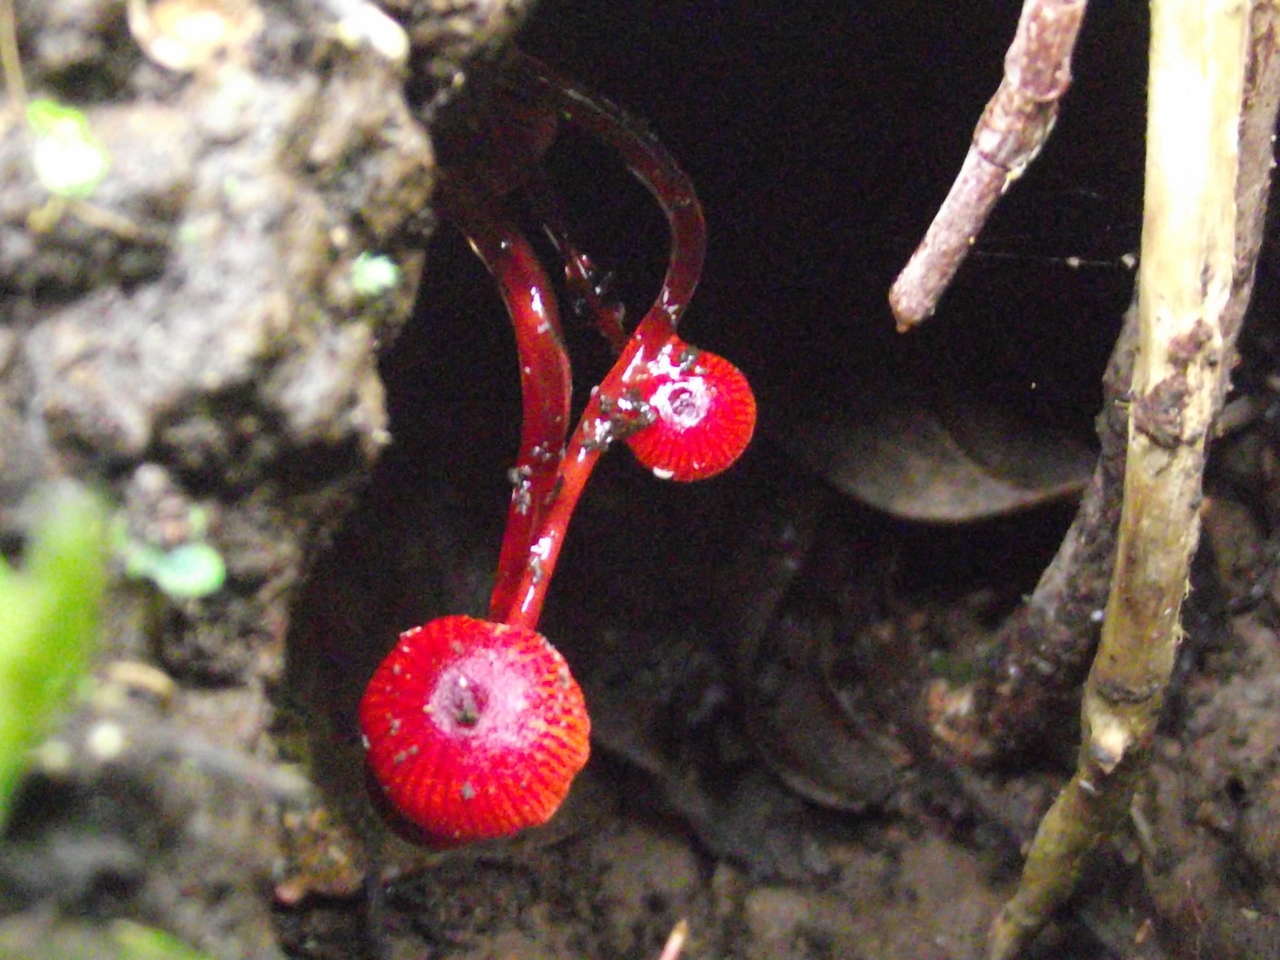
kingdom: Fungi
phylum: Basidiomycota
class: Agaricomycetes
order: Agaricales
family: Mycenaceae
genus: Cruentomycena
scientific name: Cruentomycena viscidocruenta
